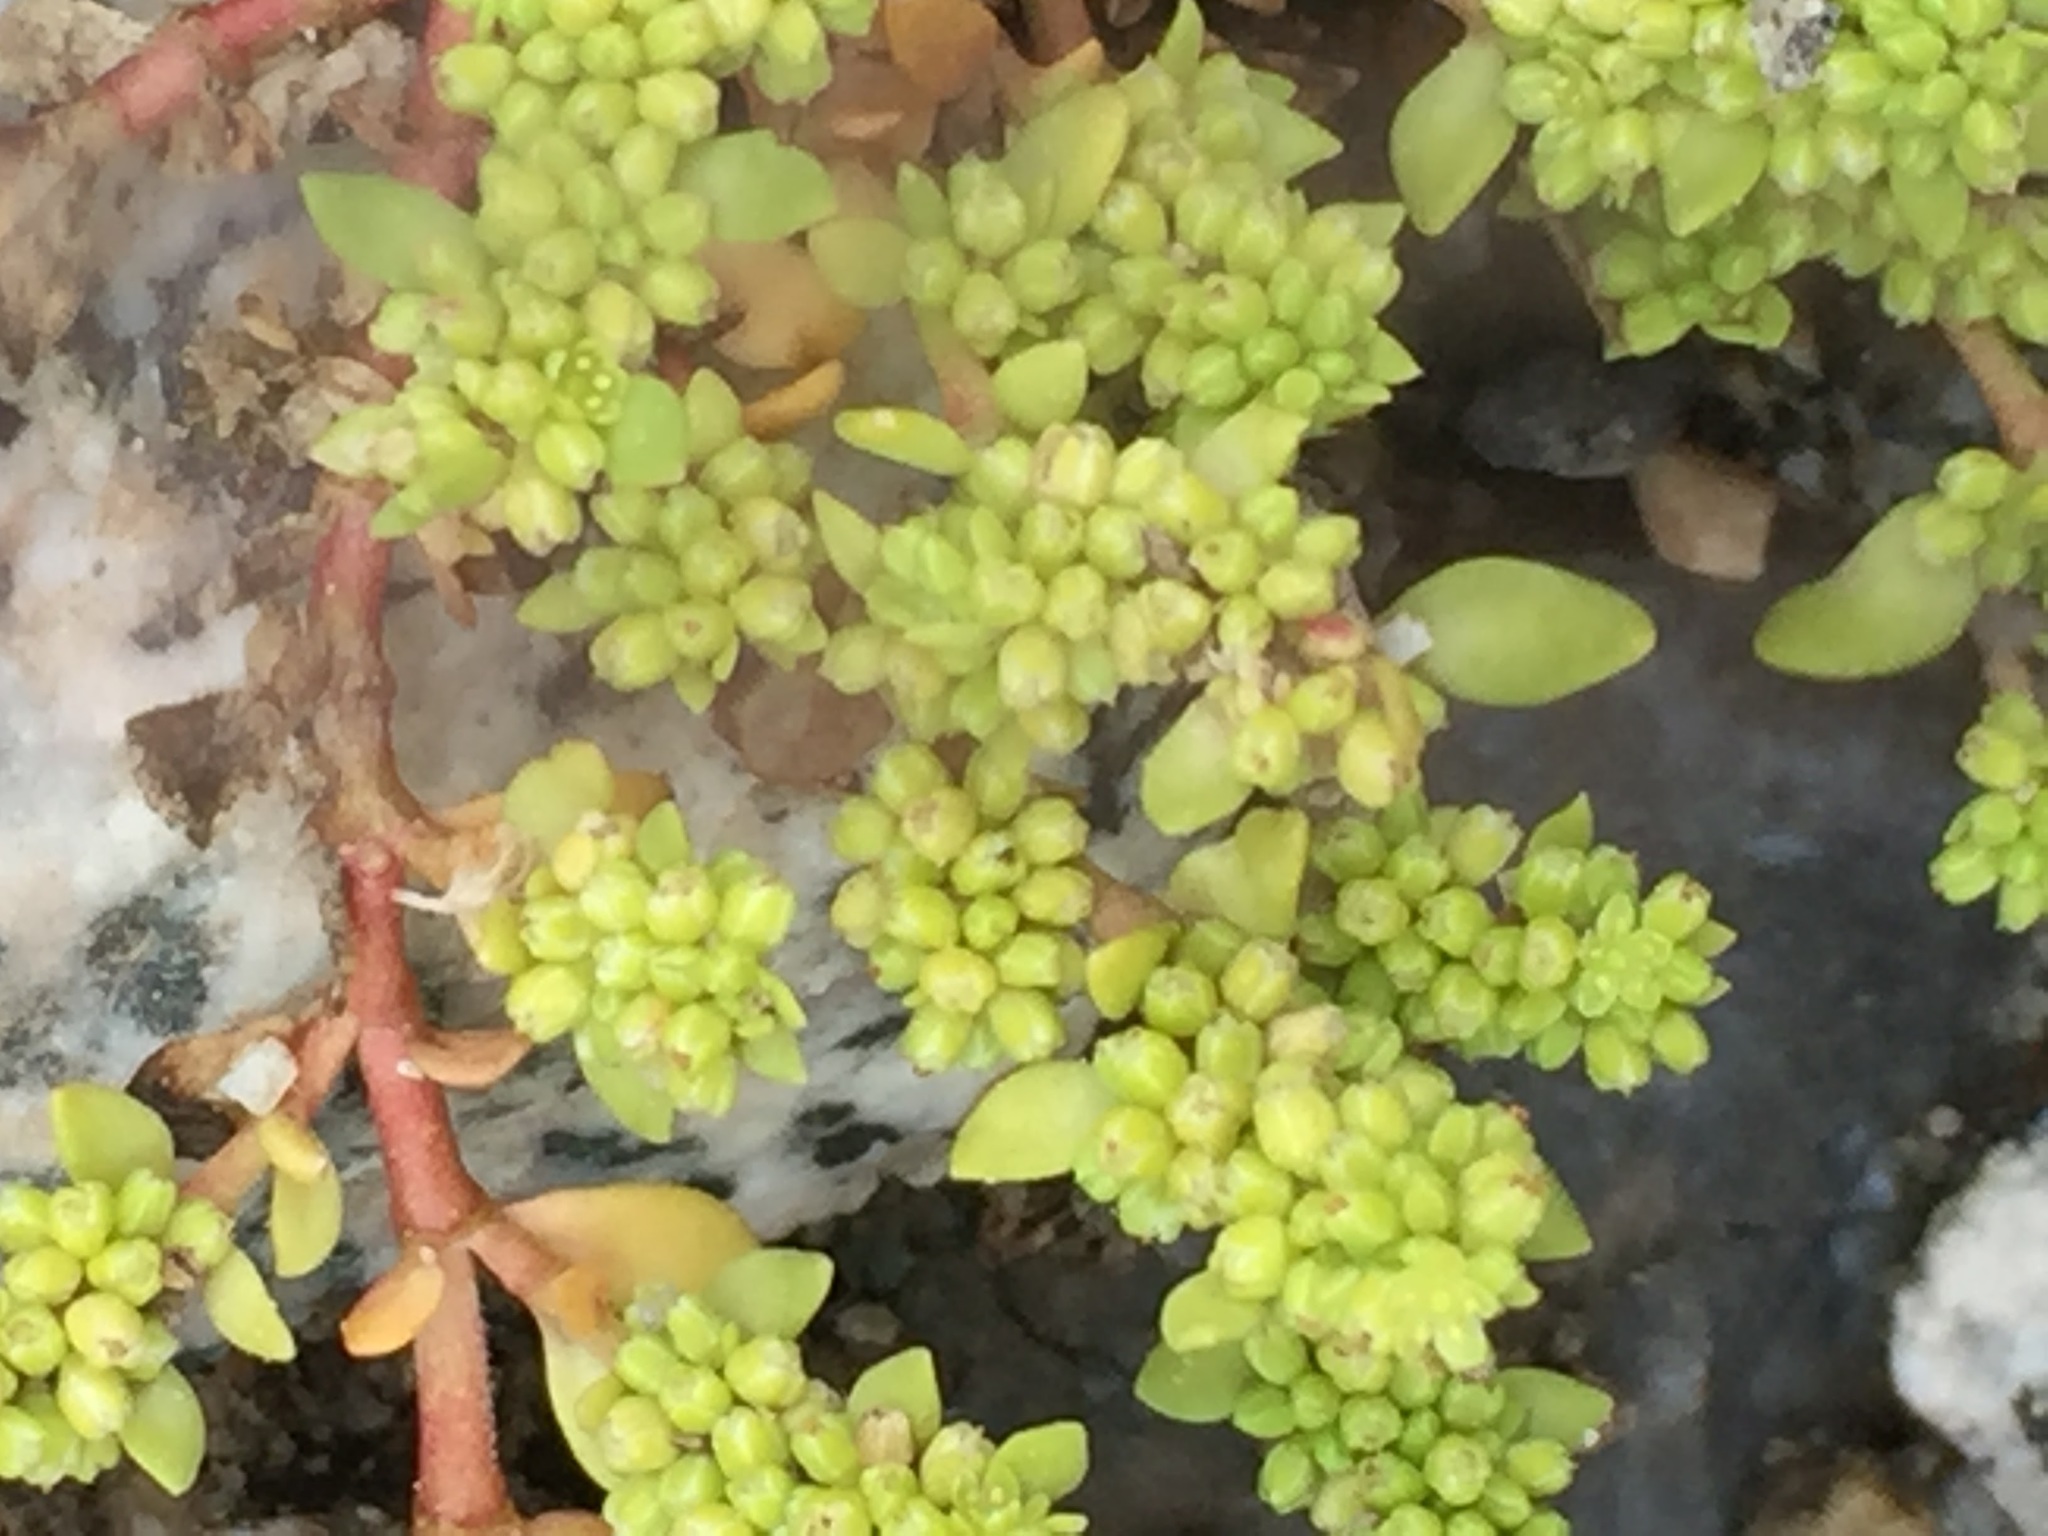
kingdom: Plantae
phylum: Tracheophyta
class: Magnoliopsida
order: Caryophyllales
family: Caryophyllaceae
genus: Herniaria
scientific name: Herniaria glabra
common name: Smooth rupturewort
